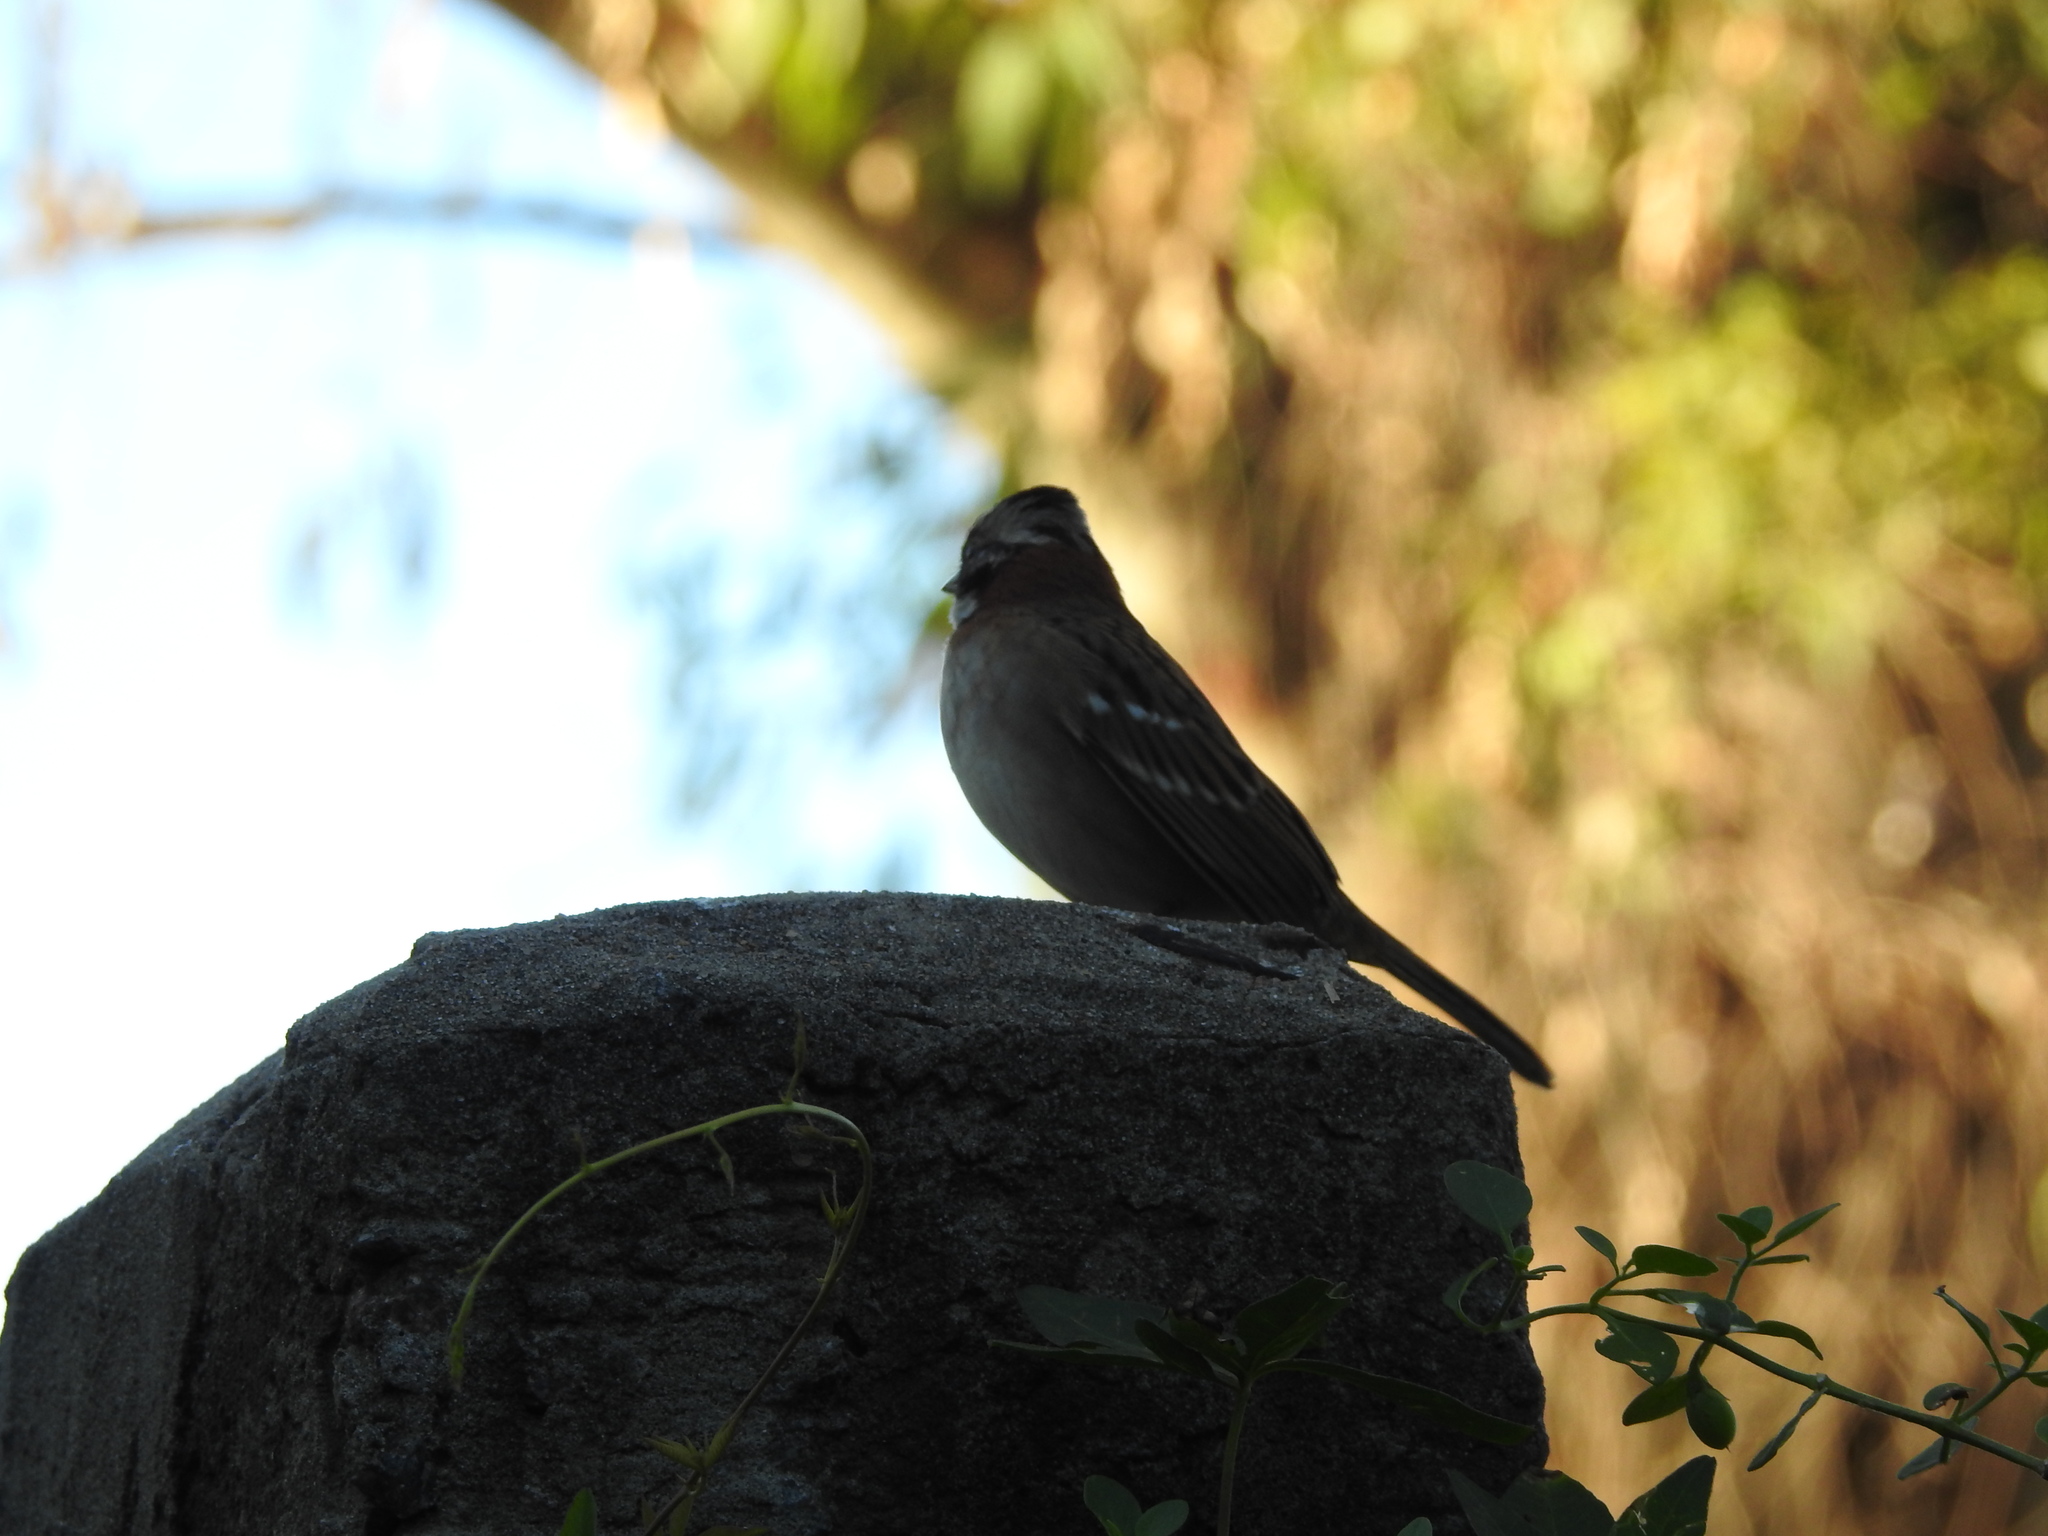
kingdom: Animalia
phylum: Chordata
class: Aves
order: Passeriformes
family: Passerellidae
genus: Zonotrichia
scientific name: Zonotrichia capensis
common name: Rufous-collared sparrow
